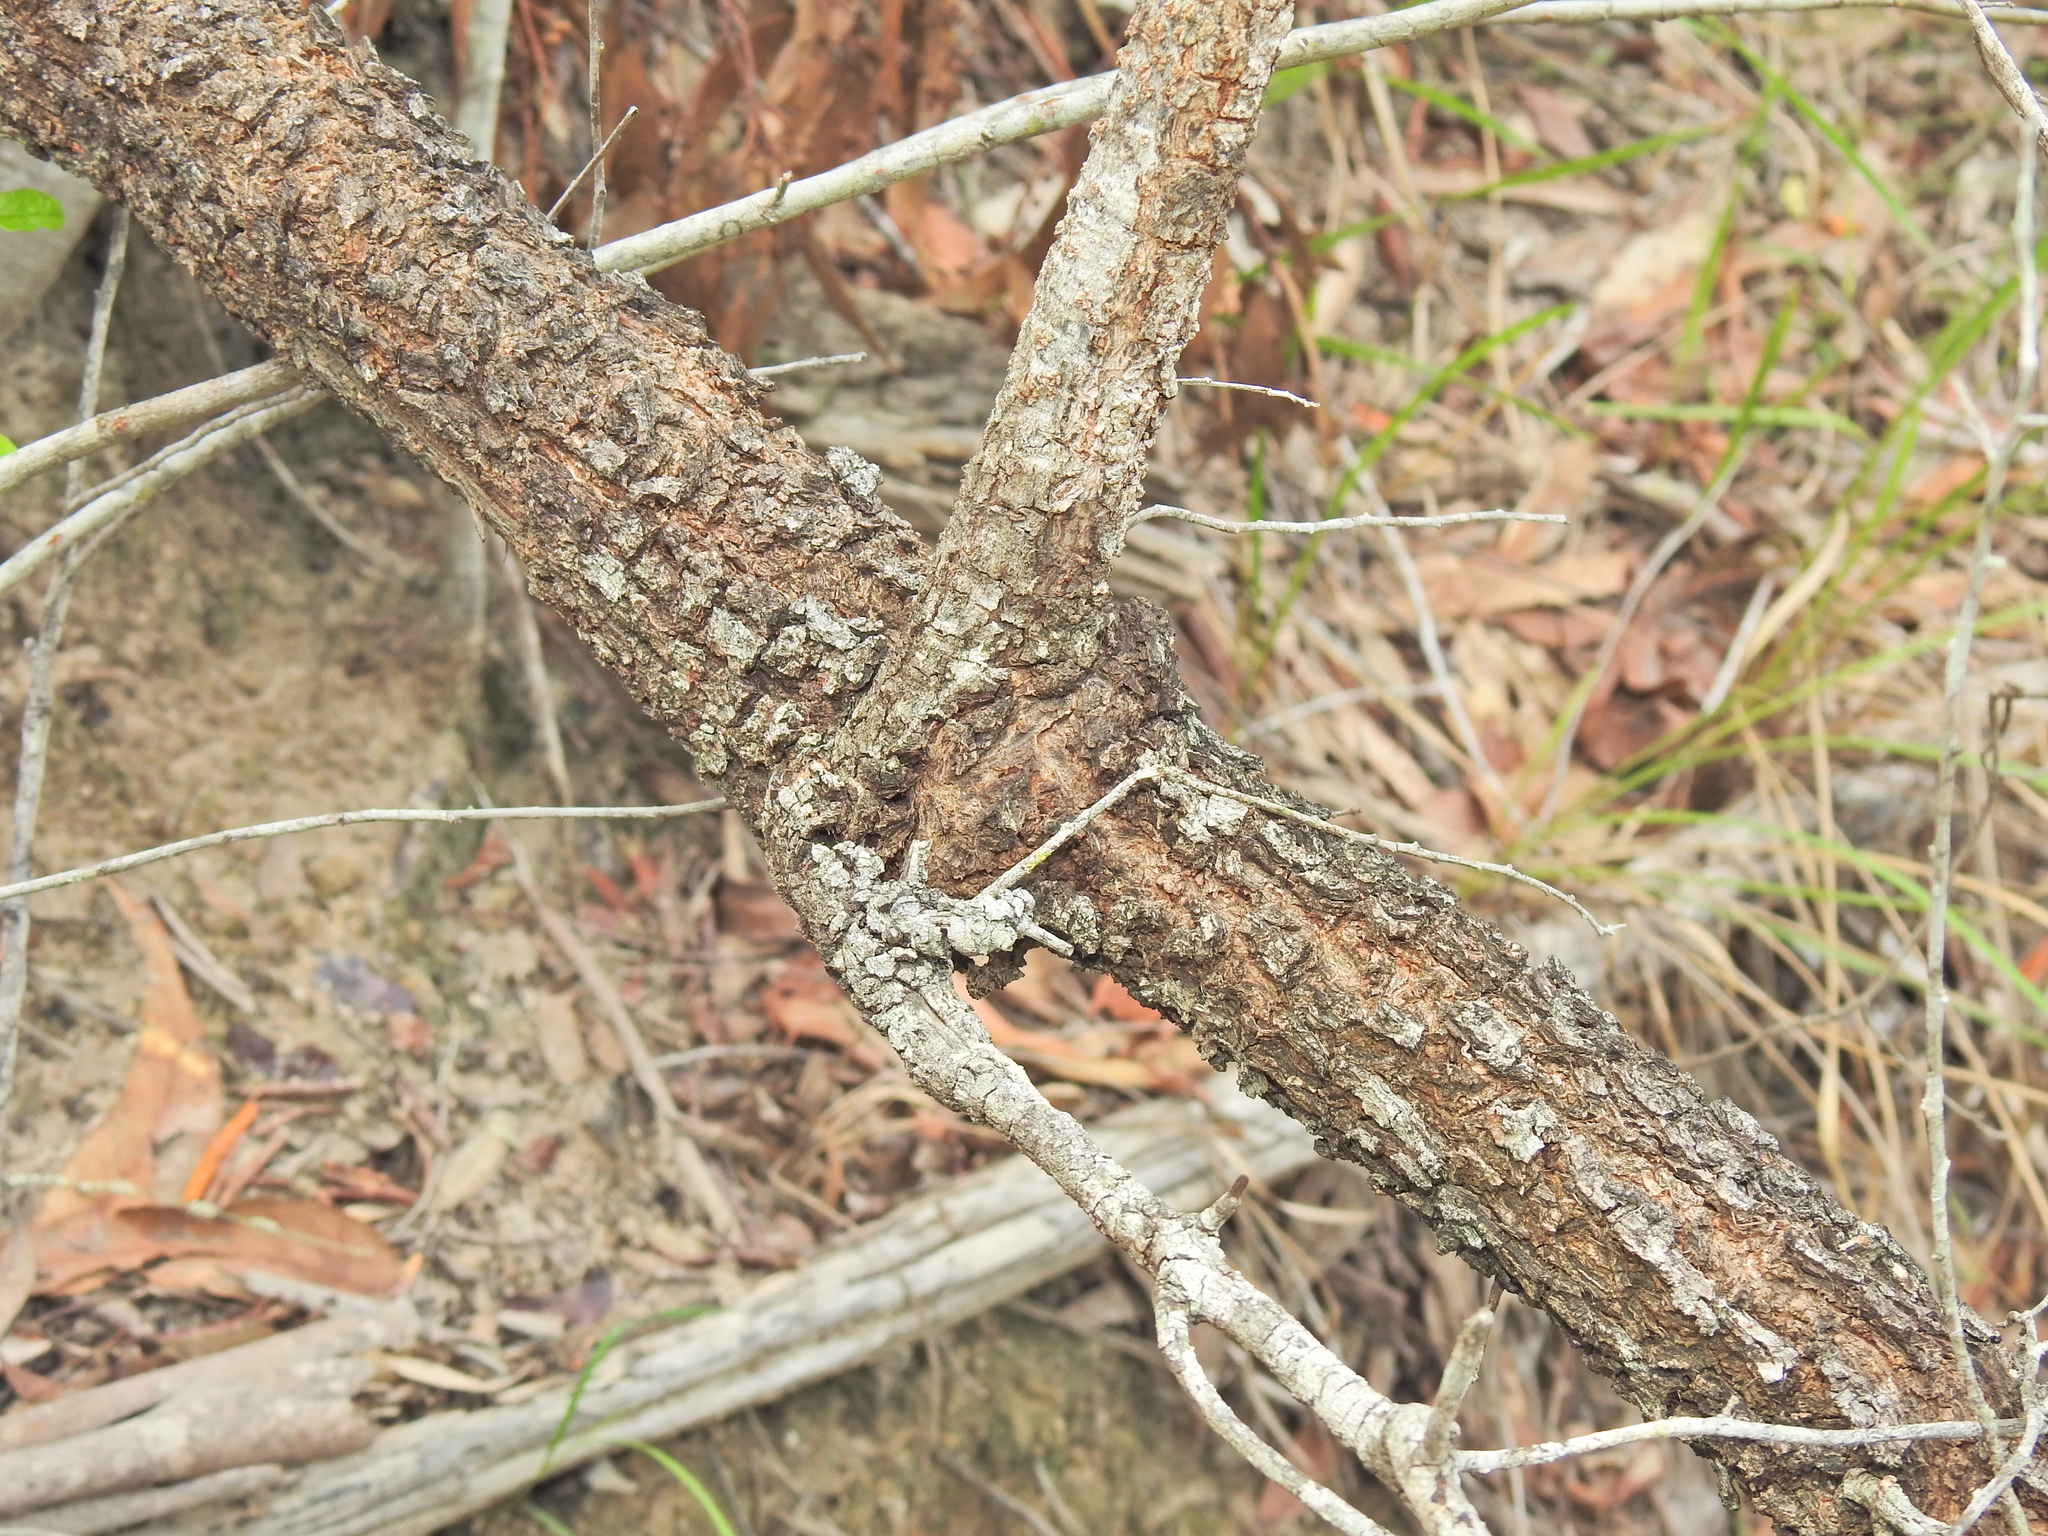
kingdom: Plantae
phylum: Tracheophyta
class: Magnoliopsida
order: Malpighiales
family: Picrodendraceae
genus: Petalostigma
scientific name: Petalostigma pubescens
